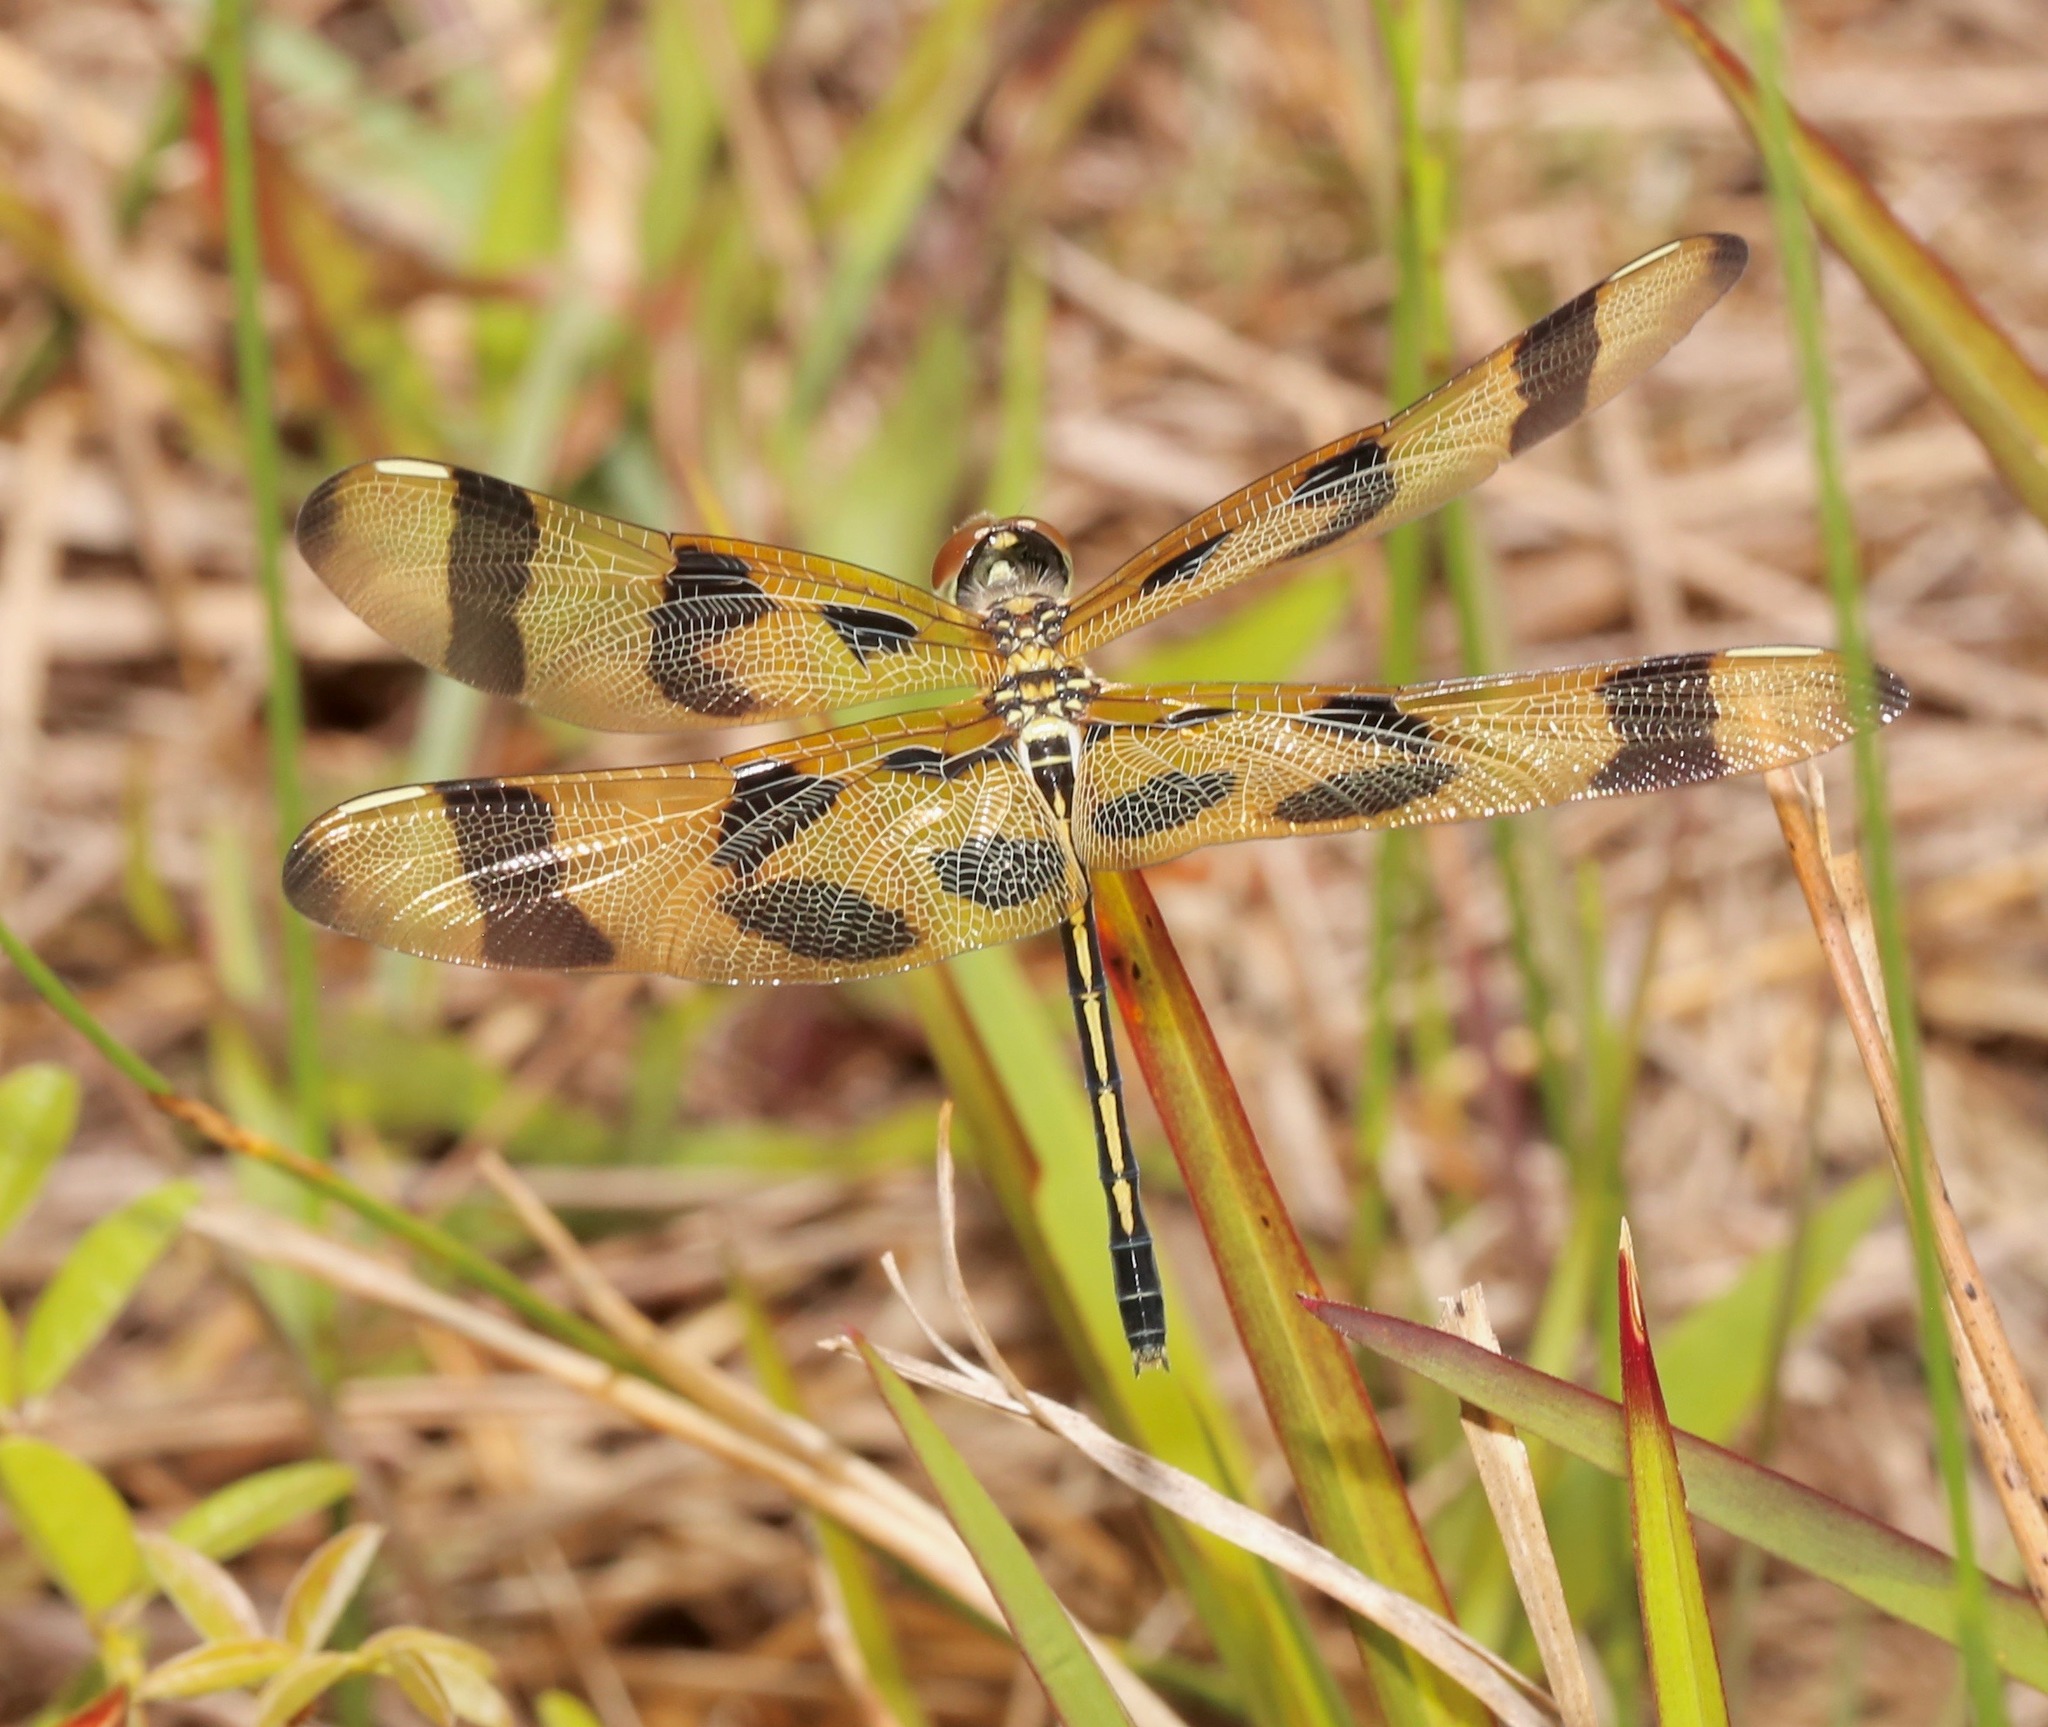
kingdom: Animalia
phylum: Arthropoda
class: Insecta
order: Odonata
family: Libellulidae
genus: Celithemis
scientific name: Celithemis eponina
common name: Halloween pennant
